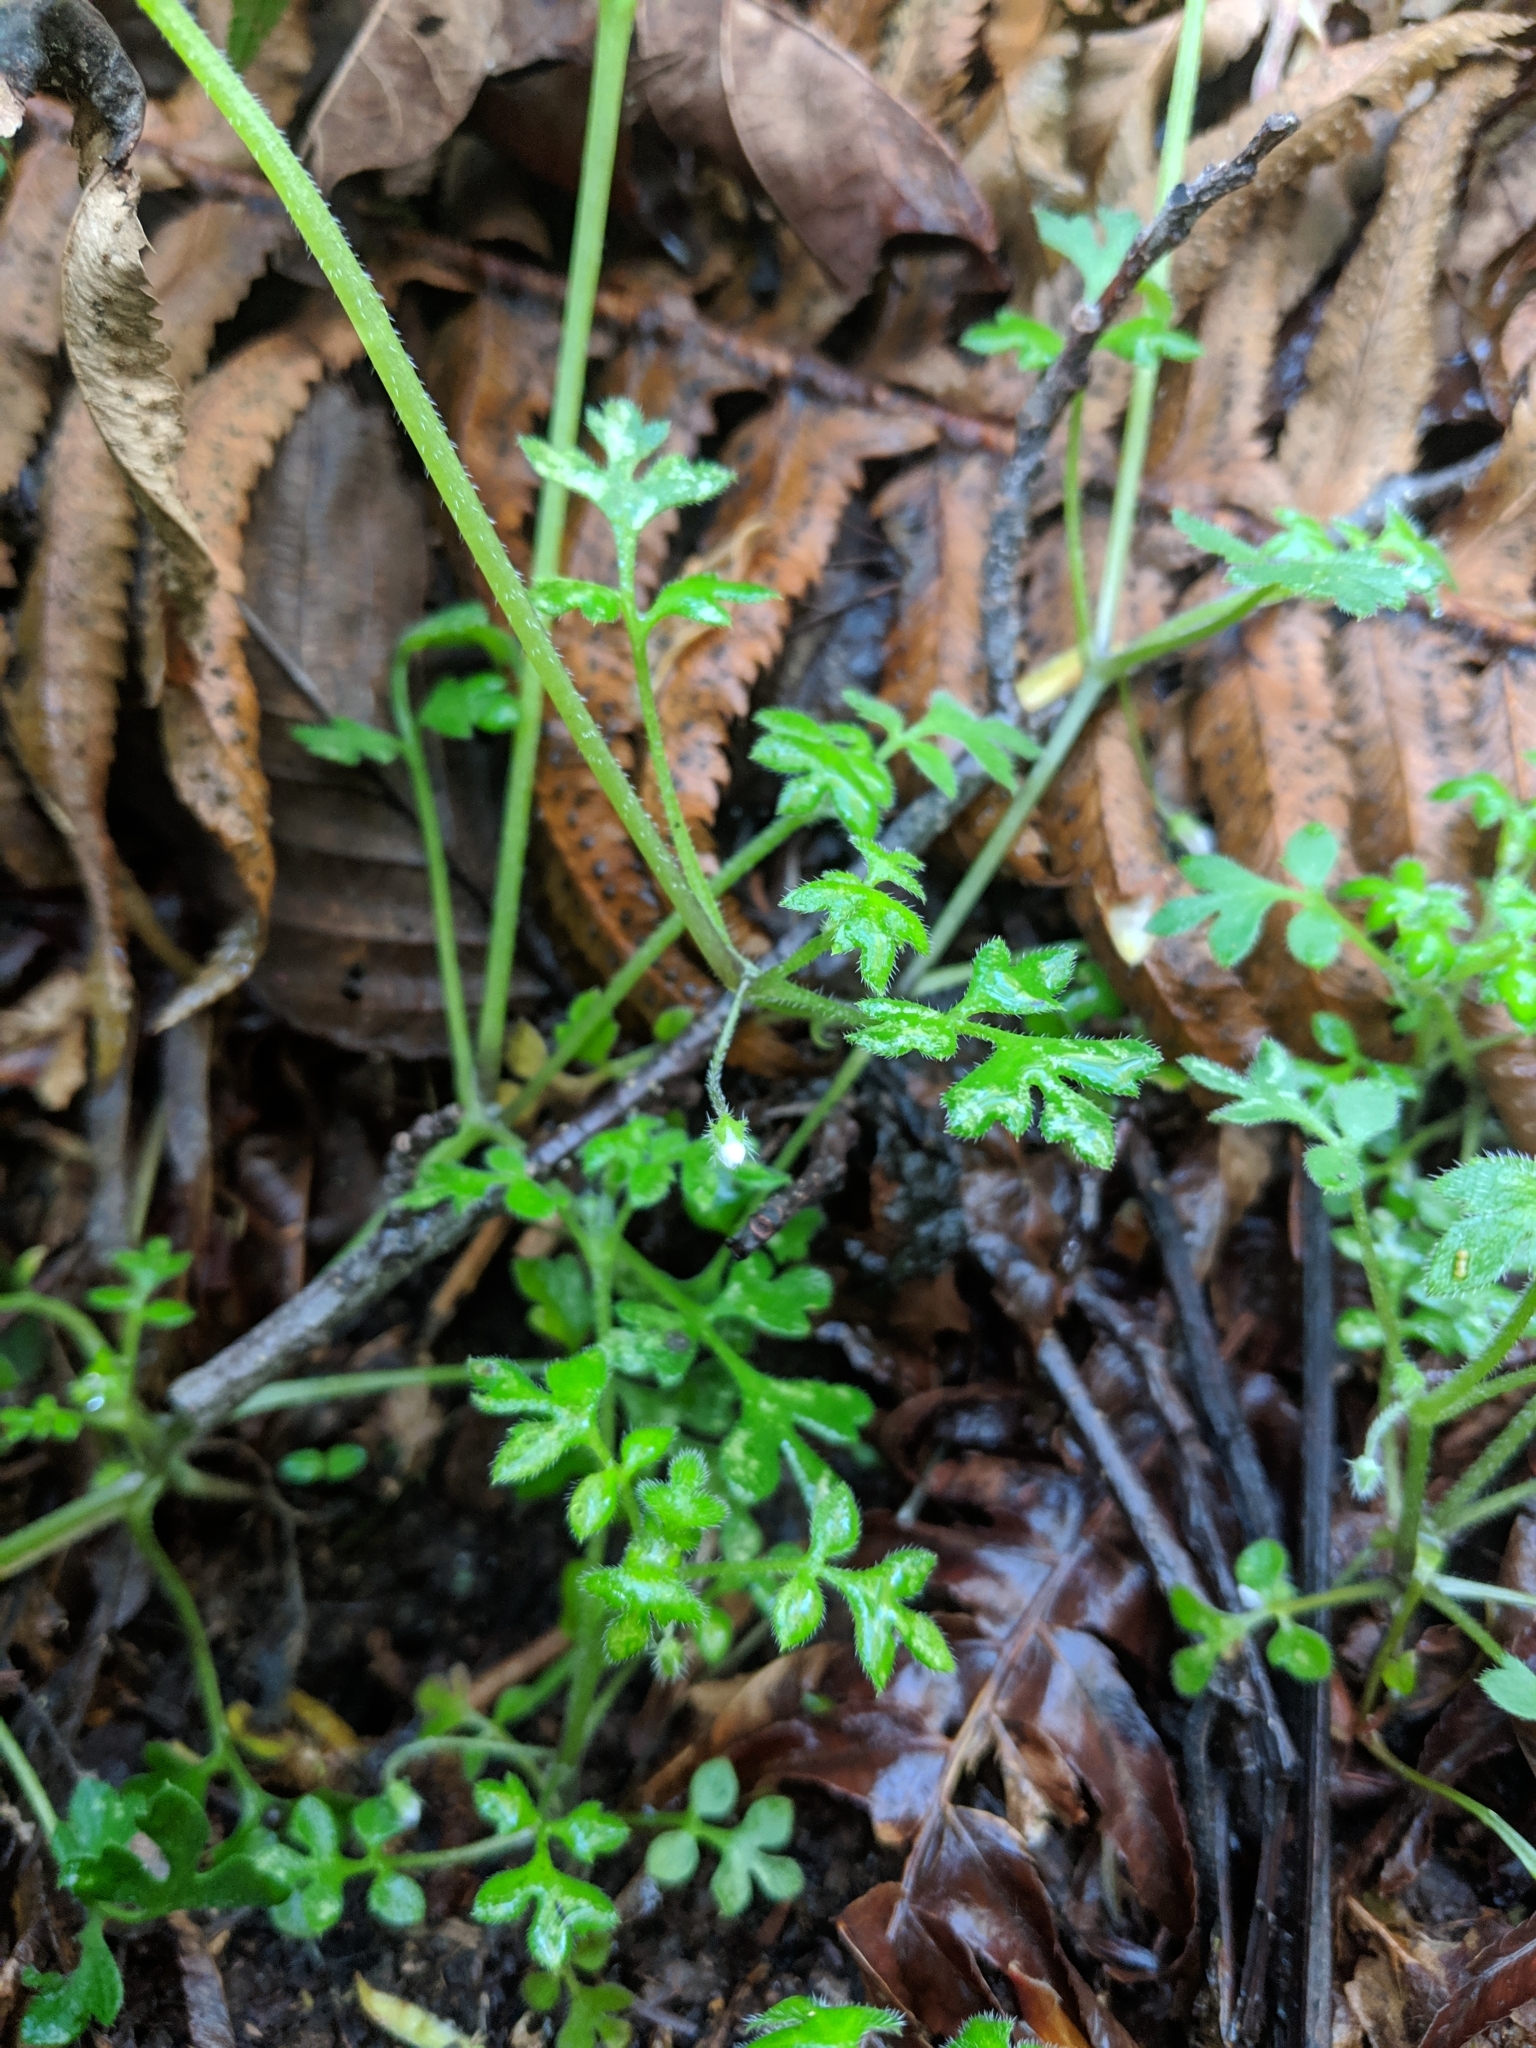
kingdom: Plantae
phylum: Tracheophyta
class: Magnoliopsida
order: Boraginales
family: Hydrophyllaceae
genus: Nemophila
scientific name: Nemophila parviflora
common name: Small-flowered baby-blue-eyes
